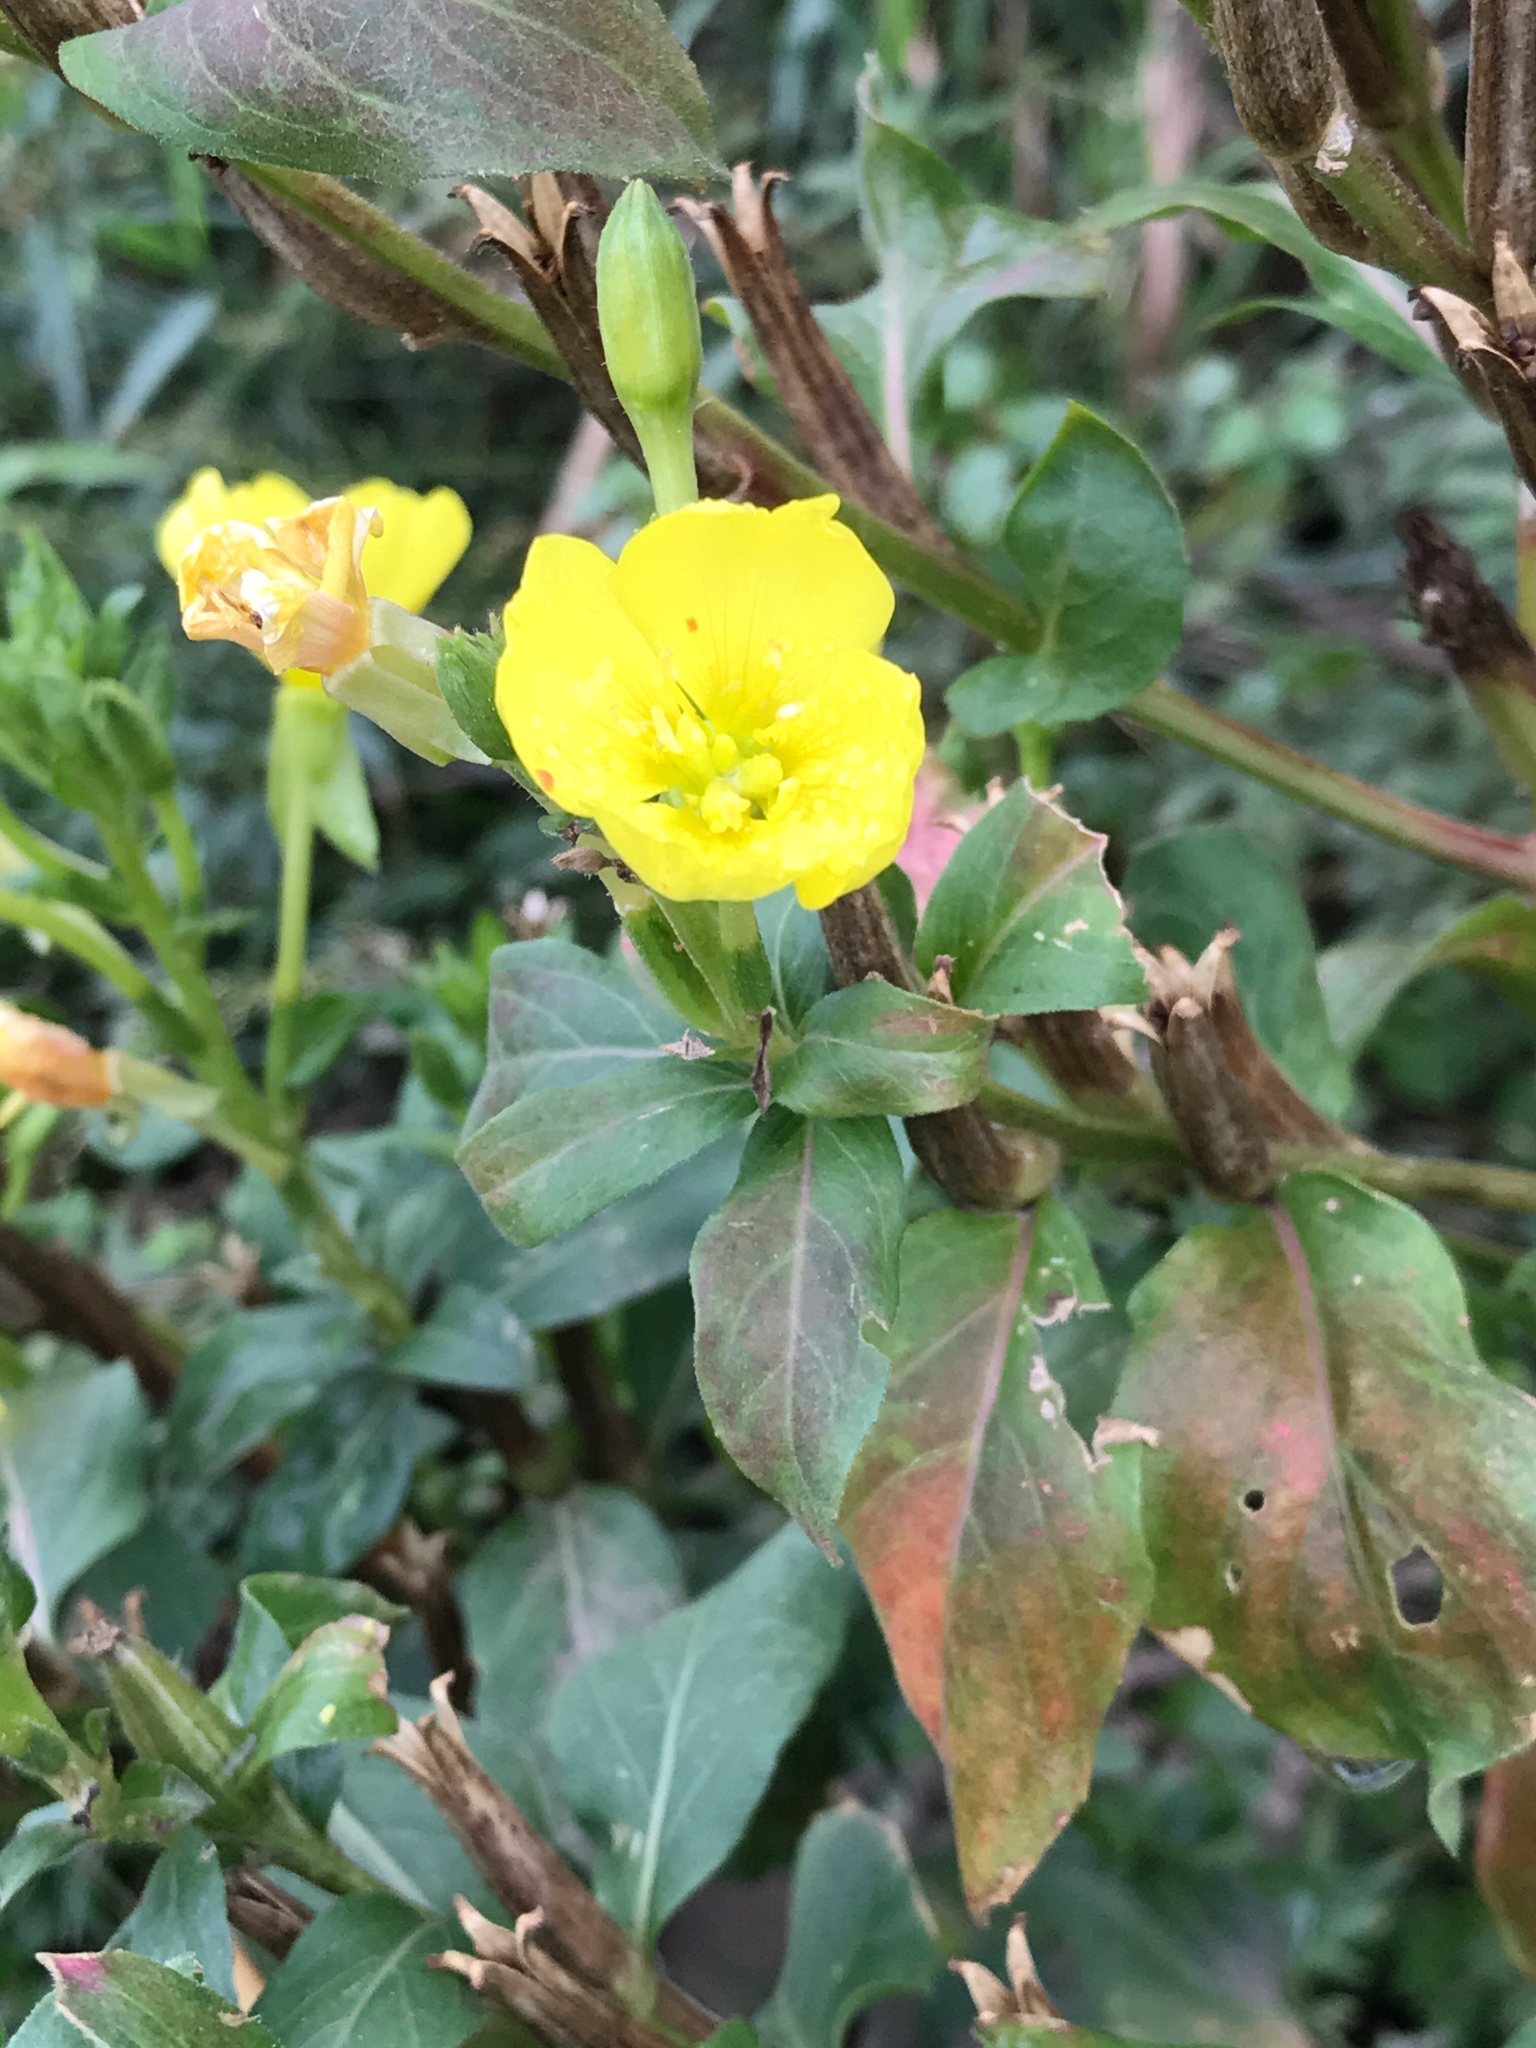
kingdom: Plantae
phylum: Tracheophyta
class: Magnoliopsida
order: Myrtales
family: Onagraceae
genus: Oenothera
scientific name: Oenothera biennis
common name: Common evening-primrose
